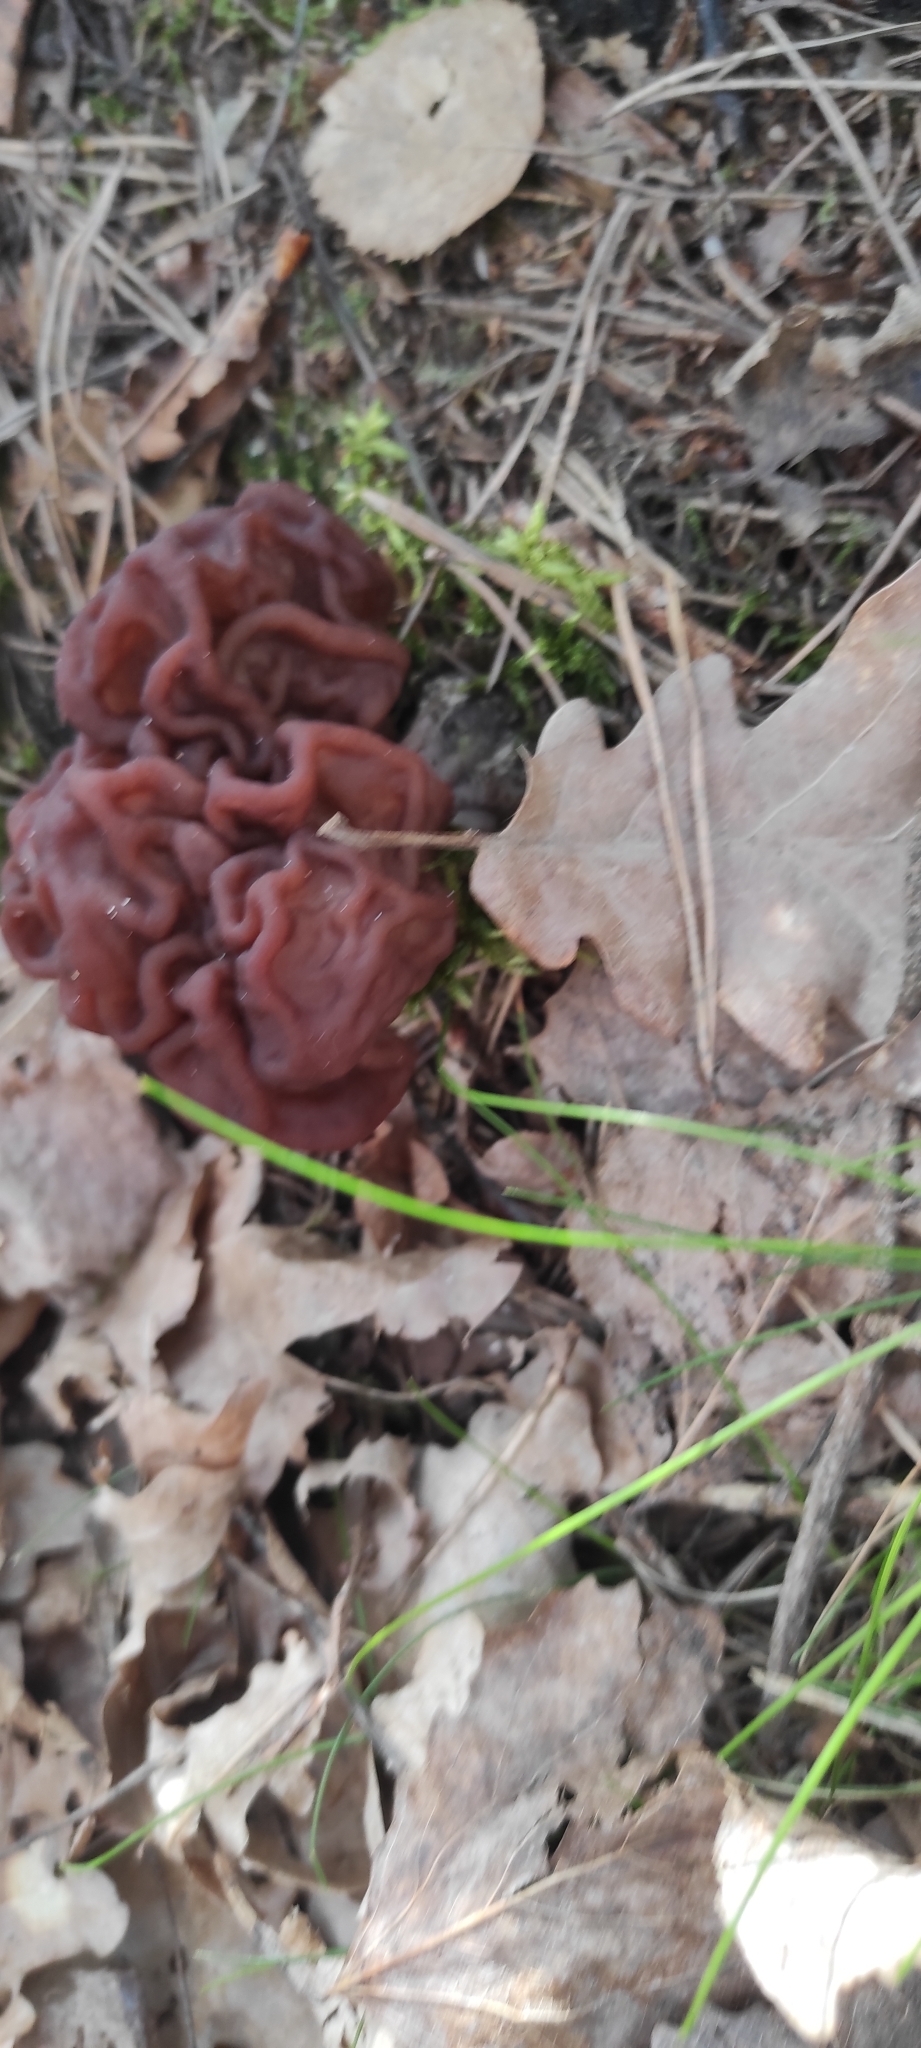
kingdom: Fungi
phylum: Ascomycota
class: Pezizomycetes
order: Pezizales
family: Discinaceae
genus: Gyromitra
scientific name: Gyromitra esculenta
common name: False morel
